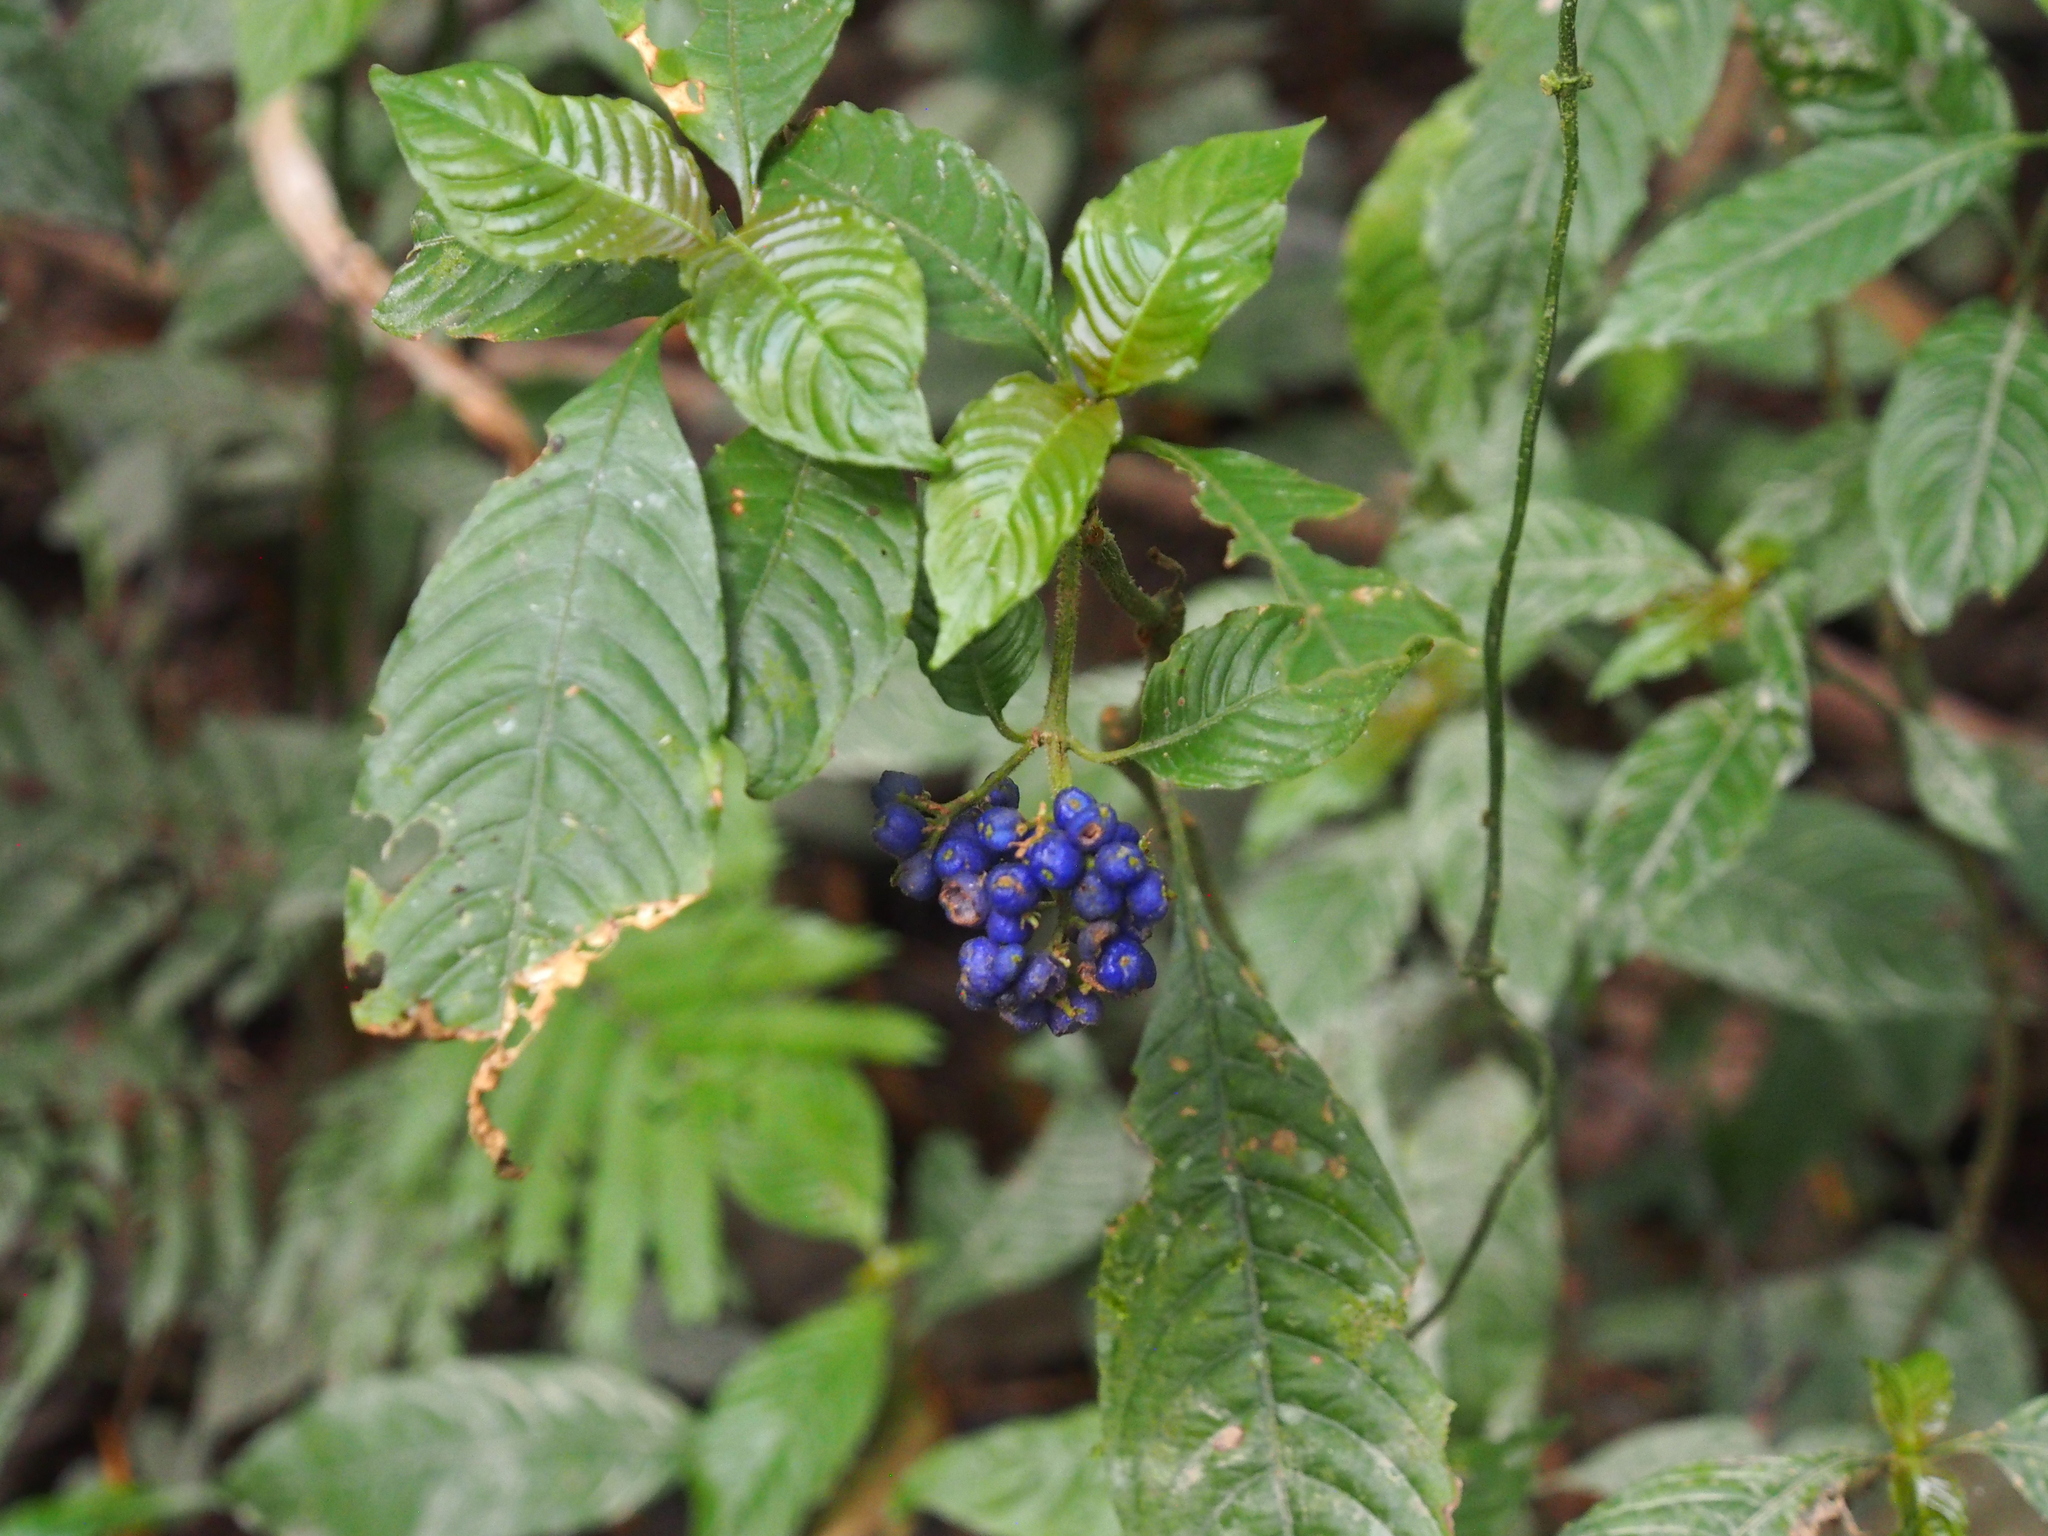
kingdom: Plantae
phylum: Tracheophyta
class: Magnoliopsida
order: Gentianales
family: Rubiaceae
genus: Palicourea
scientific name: Palicourea cyanococca
